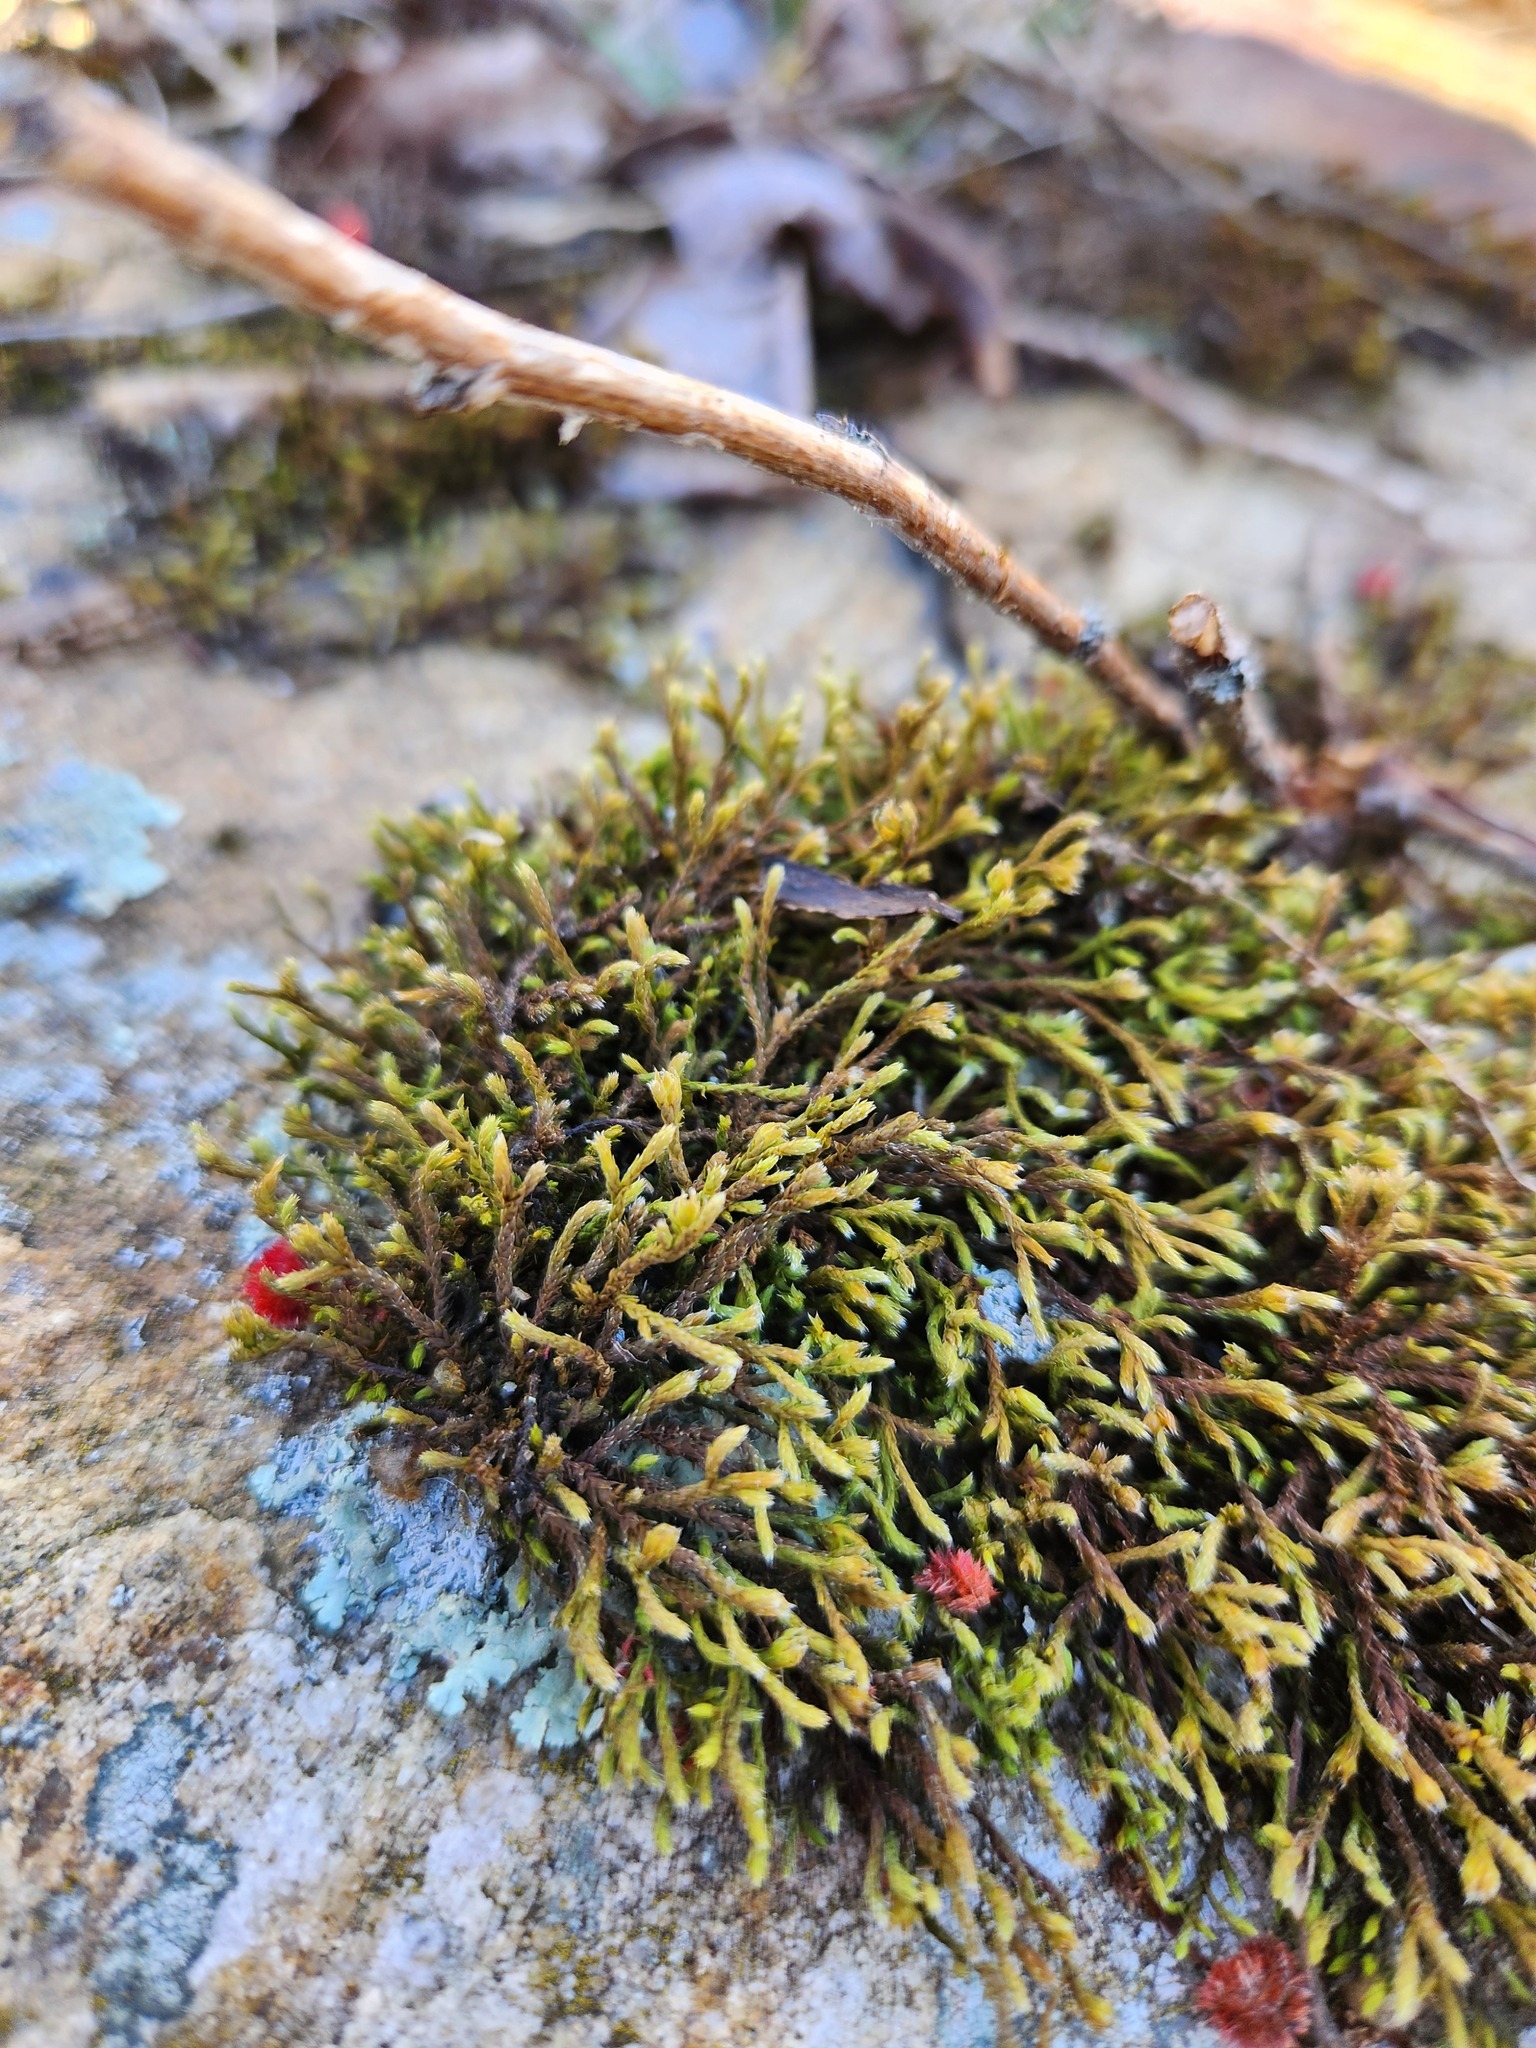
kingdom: Plantae
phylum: Bryophyta
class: Bryopsida
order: Hedwigiales
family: Hedwigiaceae
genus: Hedwigia
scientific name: Hedwigia ciliata
